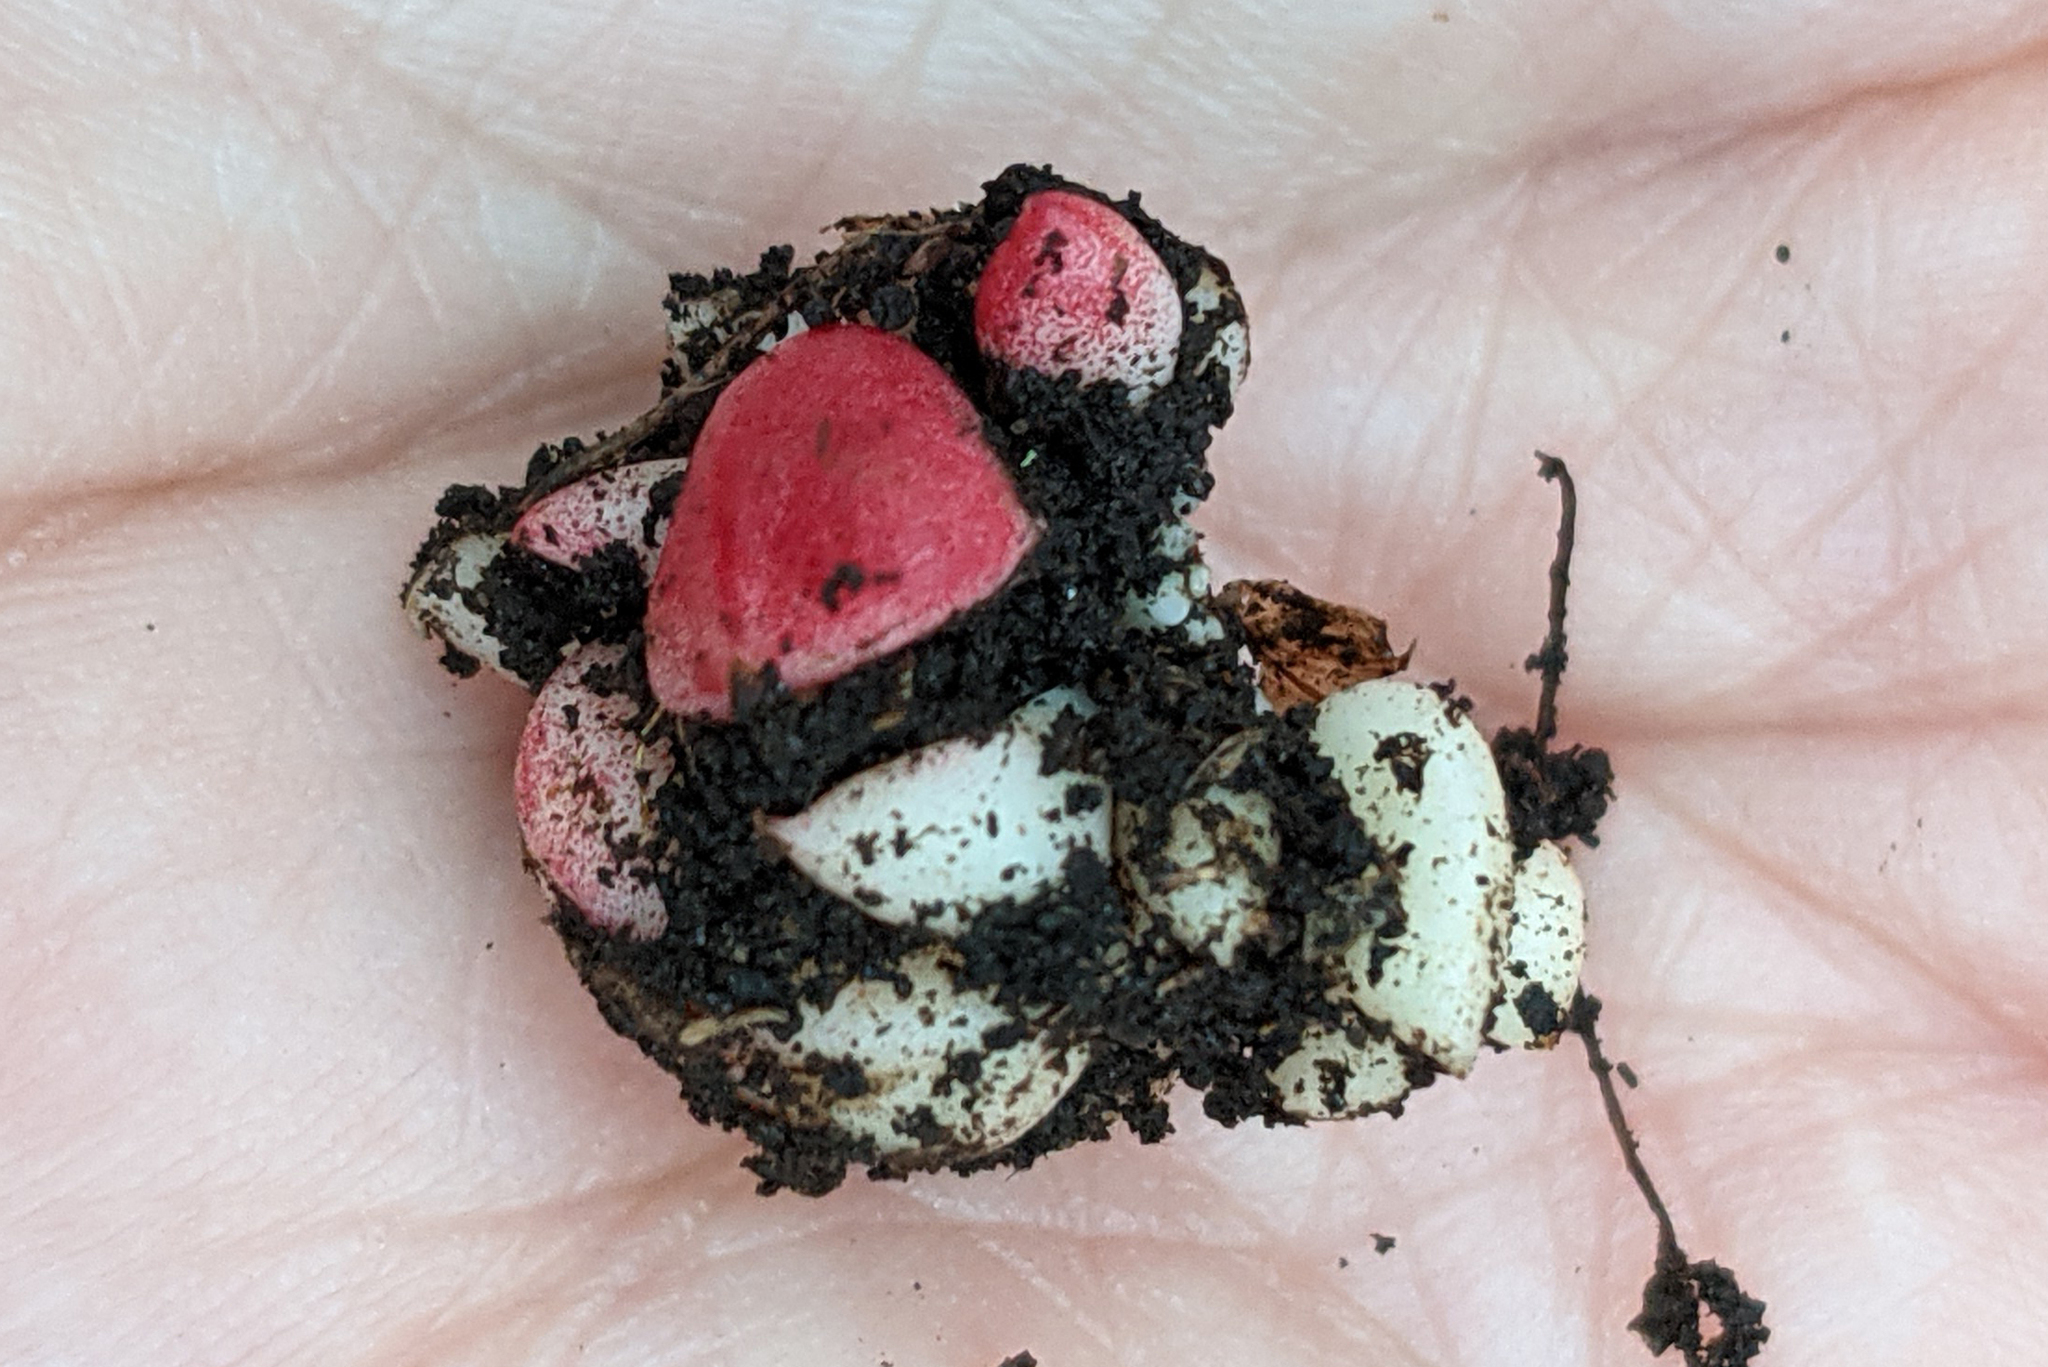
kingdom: Plantae
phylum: Tracheophyta
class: Magnoliopsida
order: Ranunculales
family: Papaveraceae
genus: Dicentra
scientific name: Dicentra cucullaria
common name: Dutchman's breeches
